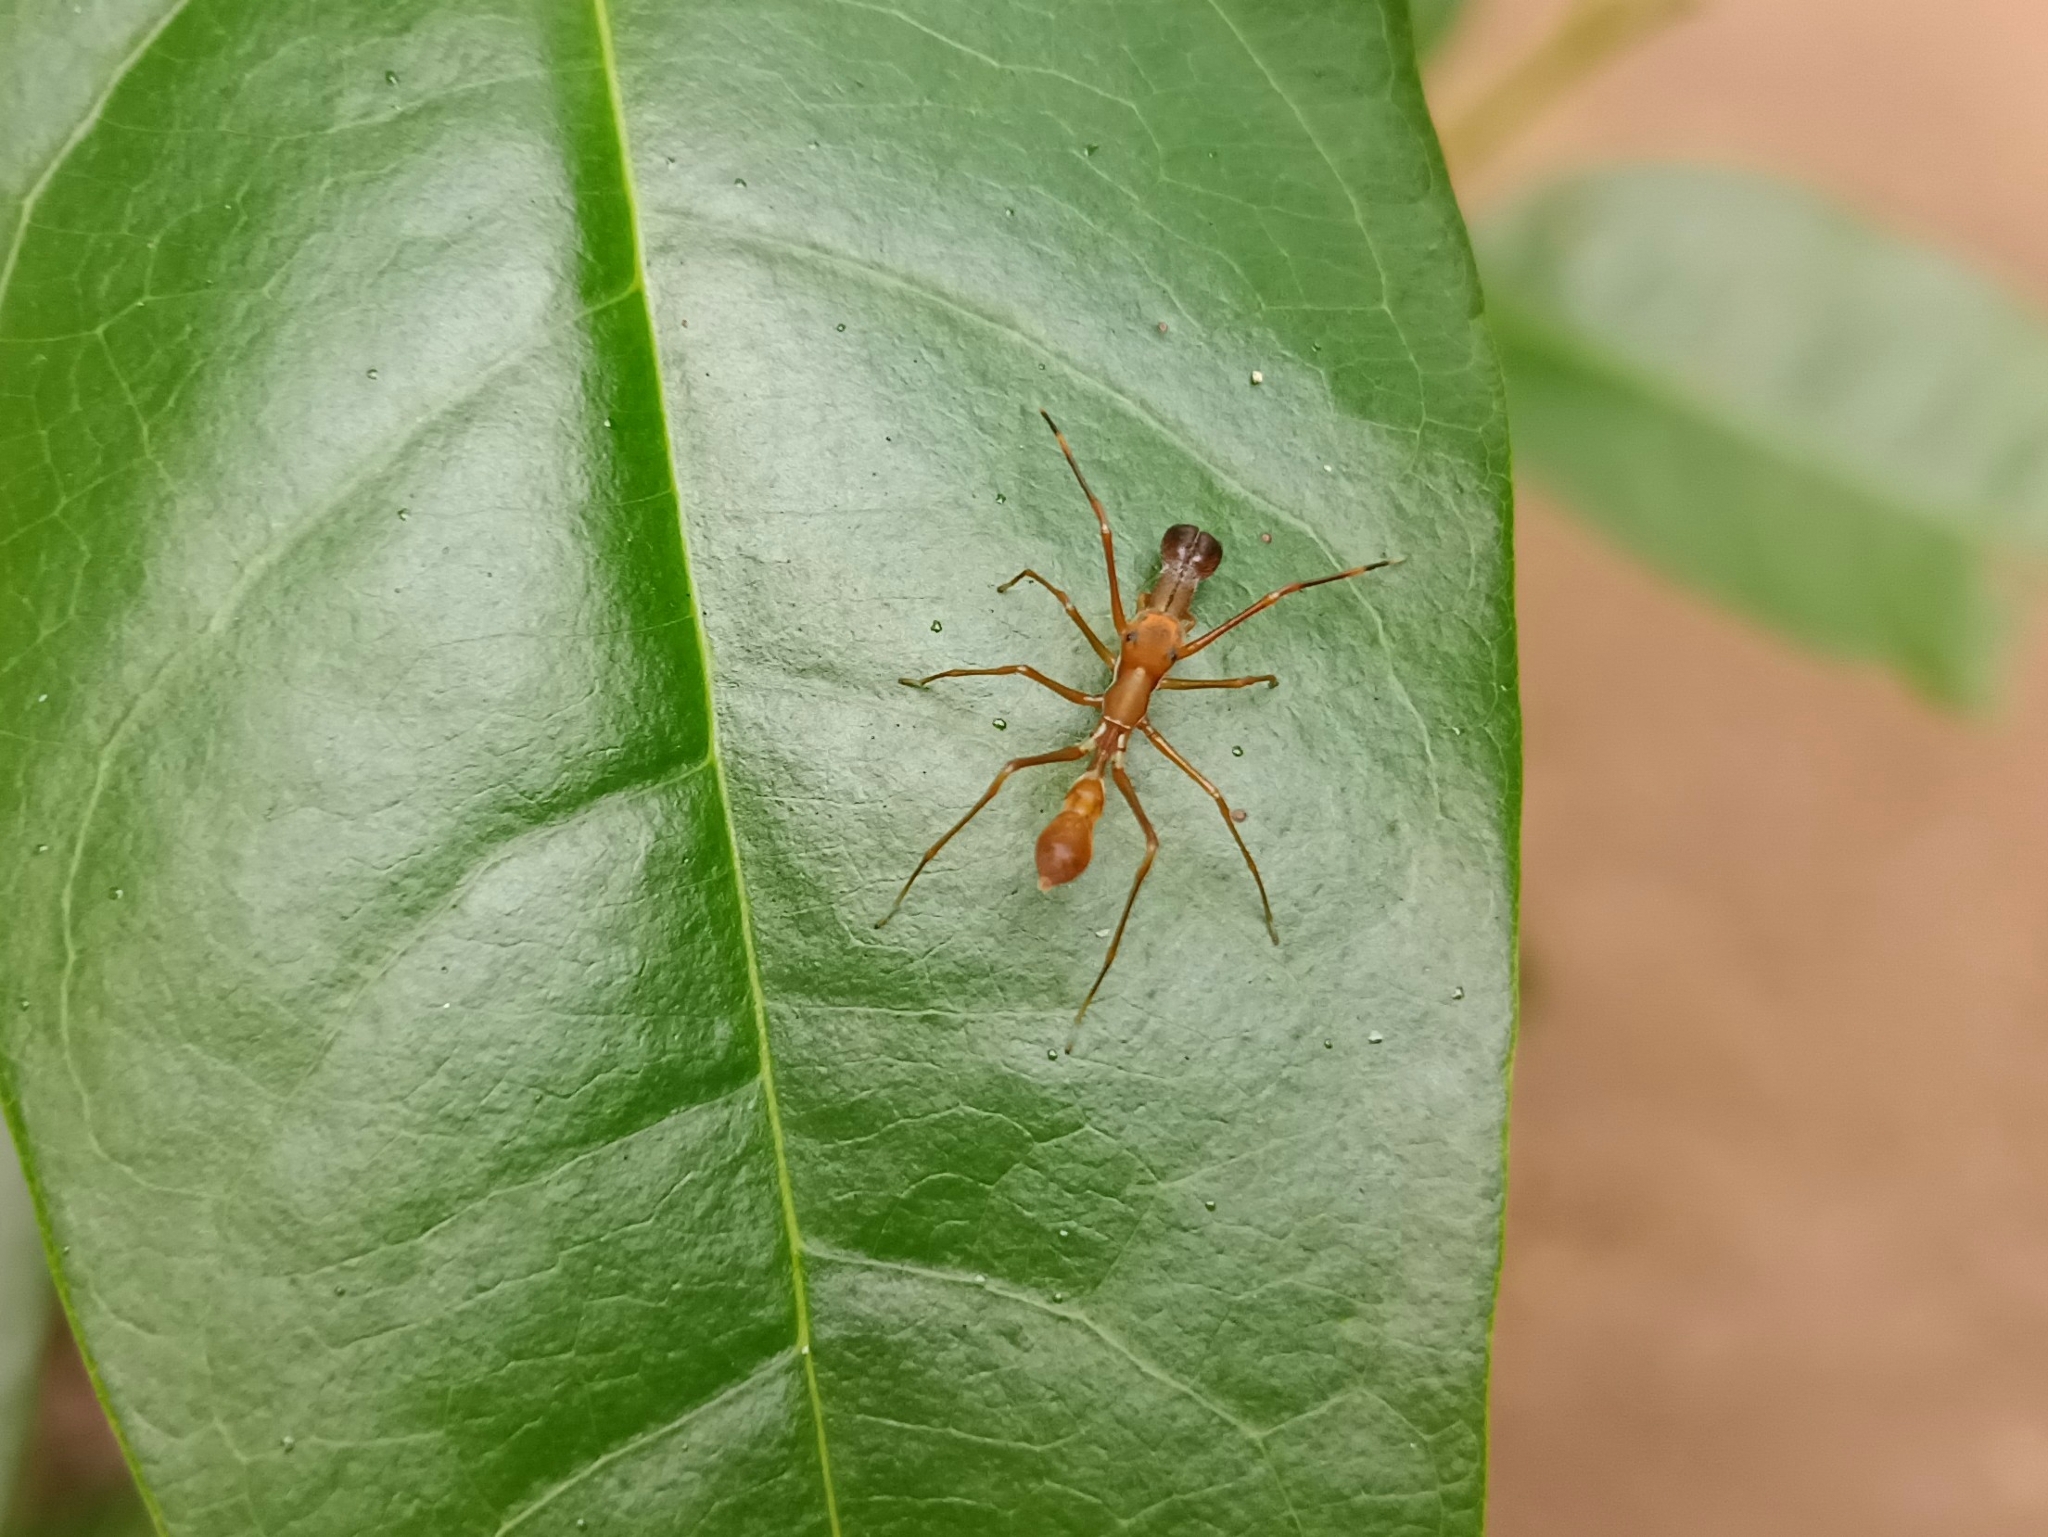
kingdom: Animalia
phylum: Arthropoda
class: Arachnida
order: Araneae
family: Salticidae
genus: Myrmaplata
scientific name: Myrmaplata plataleoides
